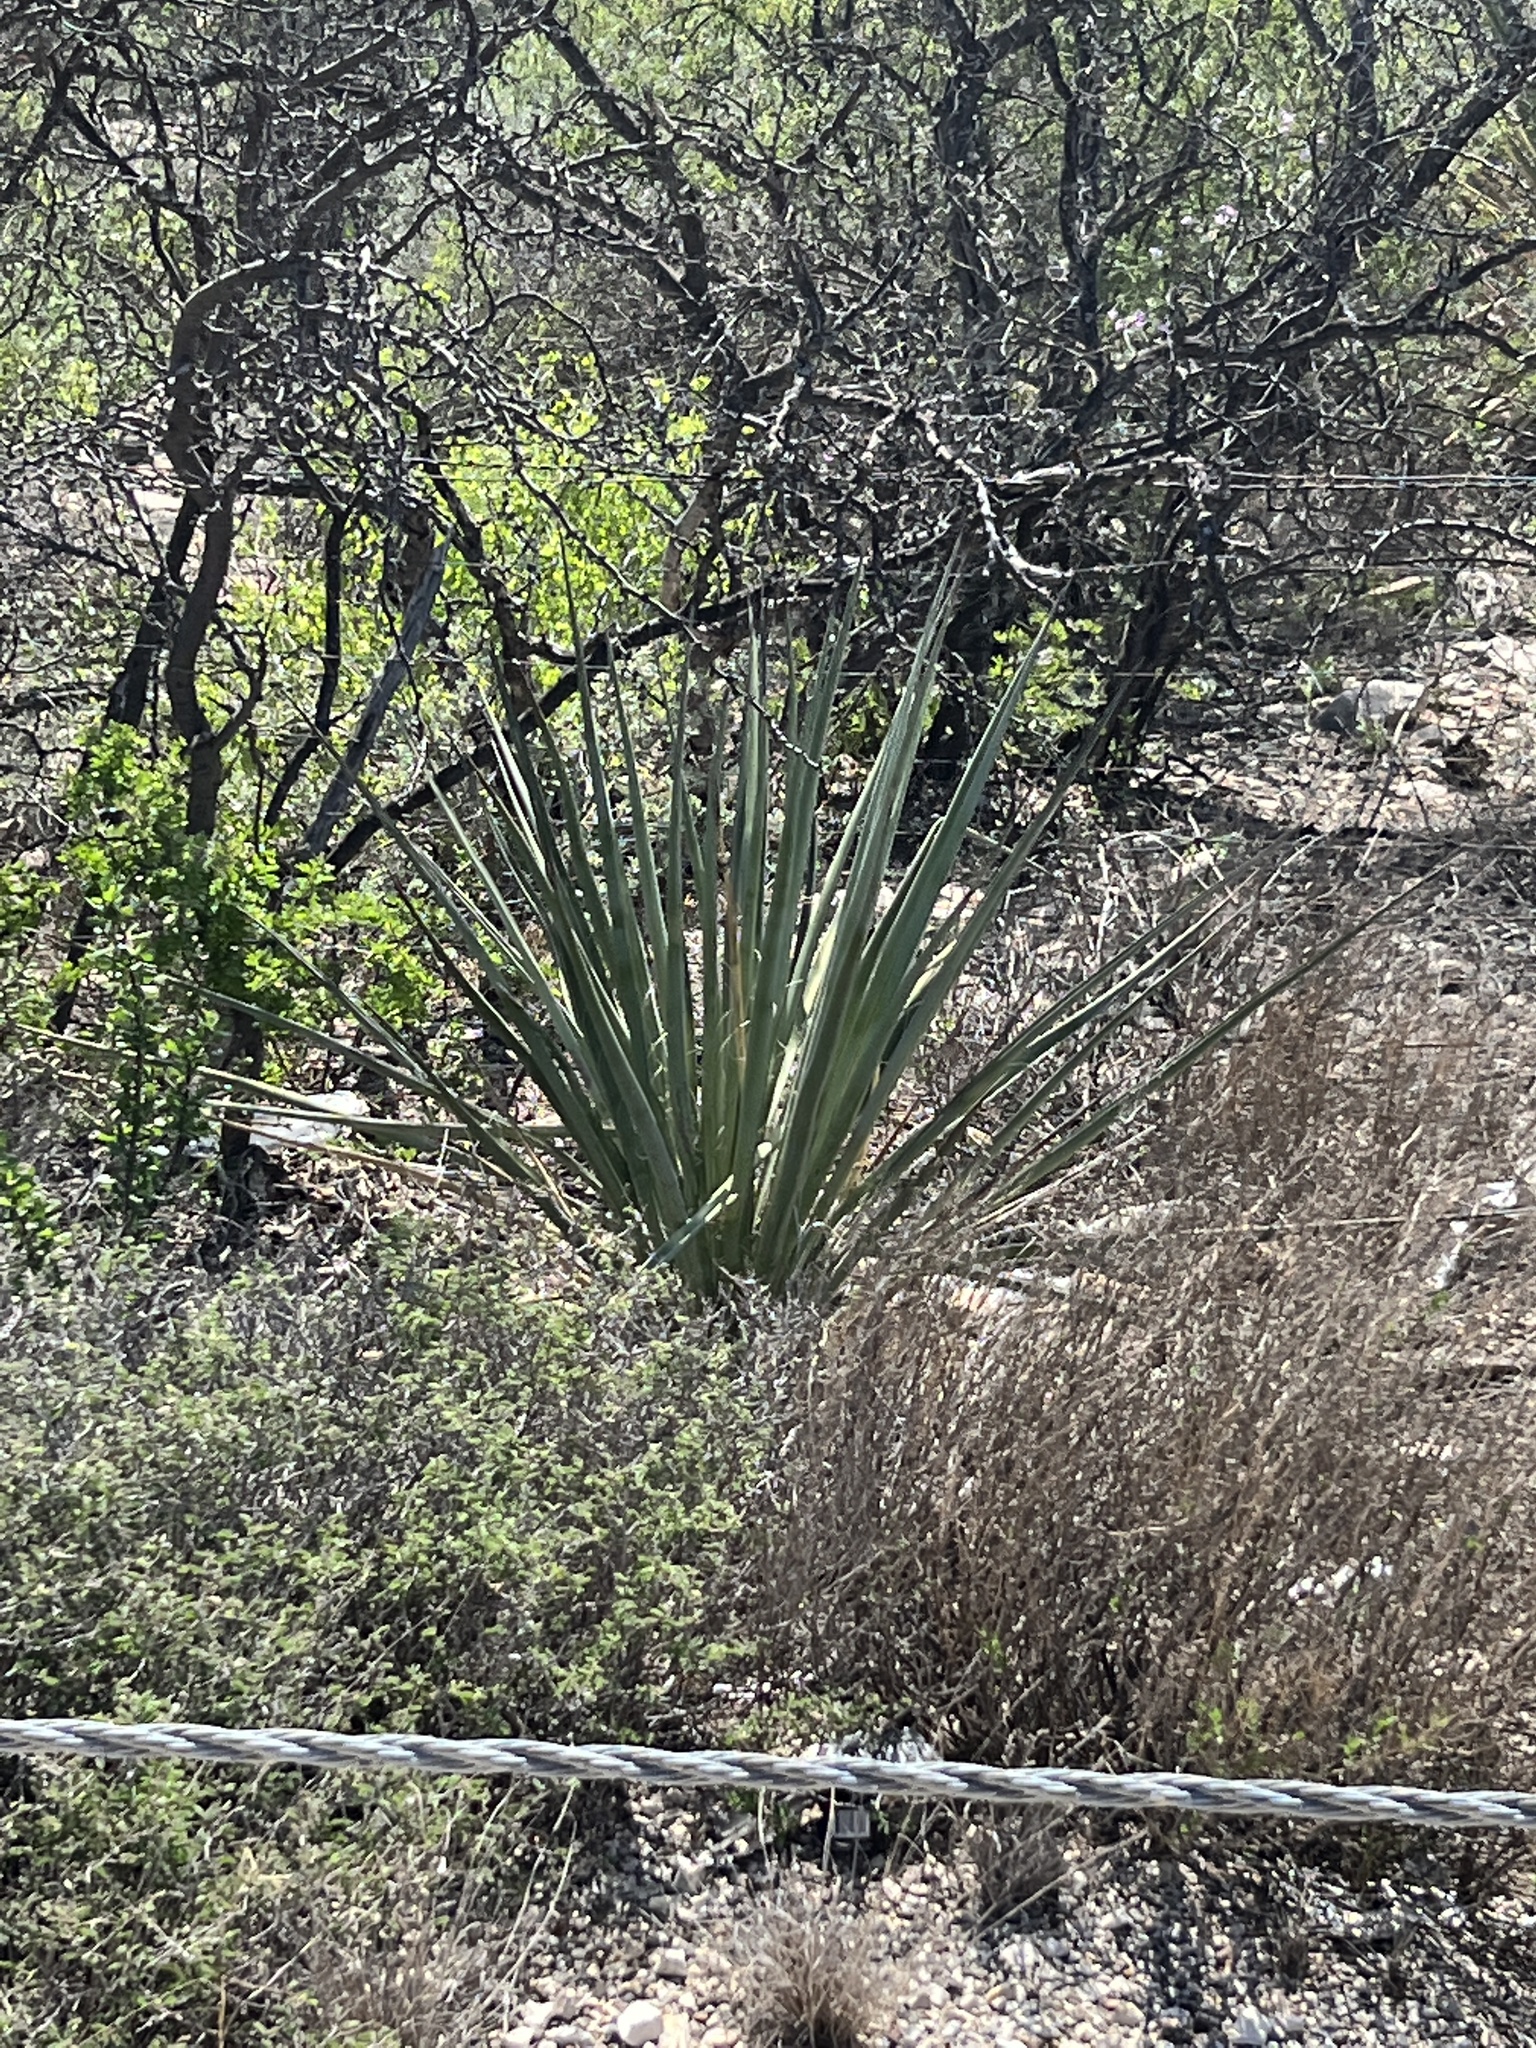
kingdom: Plantae
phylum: Tracheophyta
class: Liliopsida
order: Asparagales
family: Asparagaceae
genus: Yucca
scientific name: Yucca treculiana
